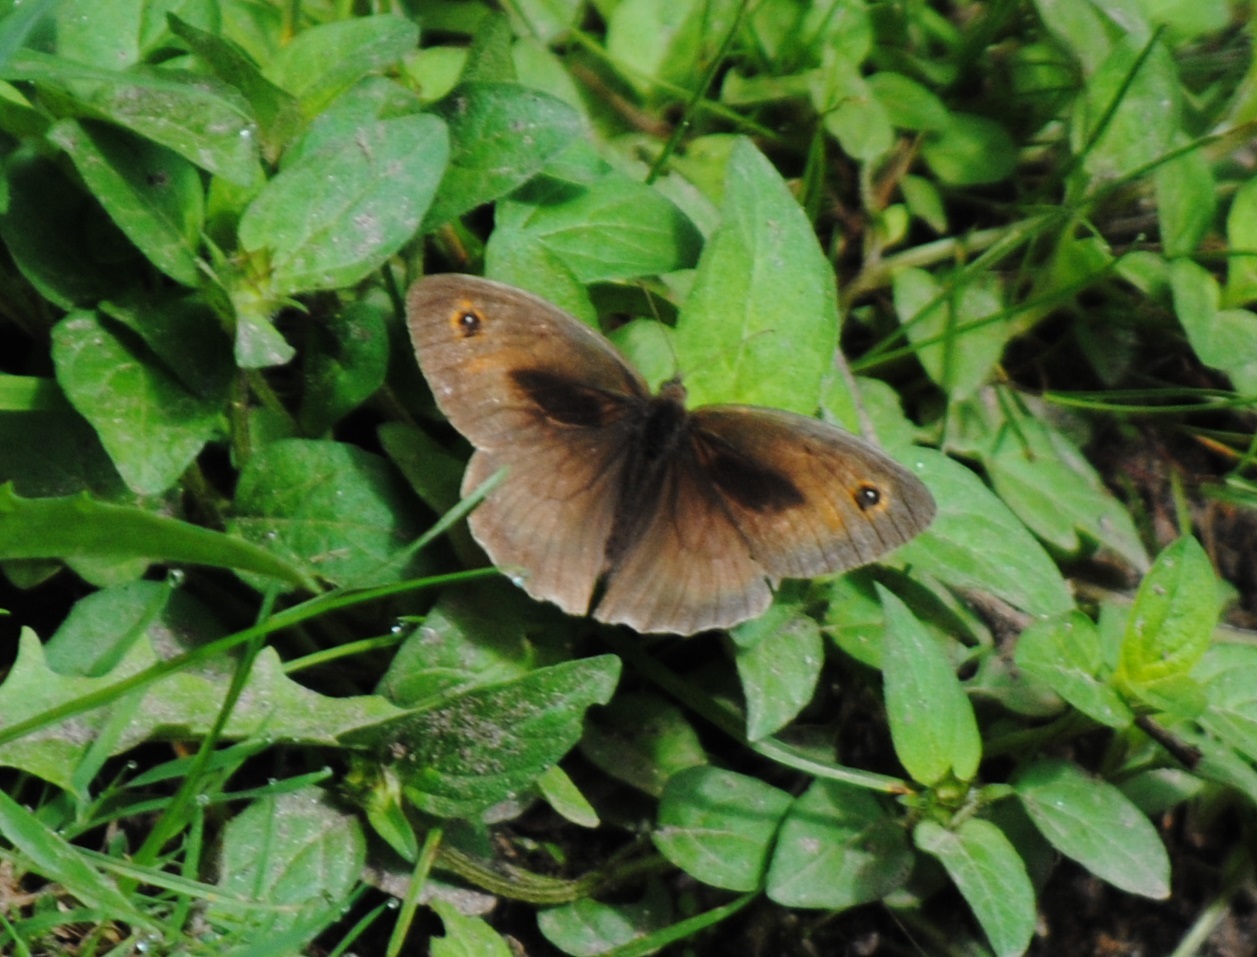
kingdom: Animalia
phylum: Arthropoda
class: Insecta
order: Lepidoptera
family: Nymphalidae
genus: Maniola
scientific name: Maniola jurtina
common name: Meadow brown
